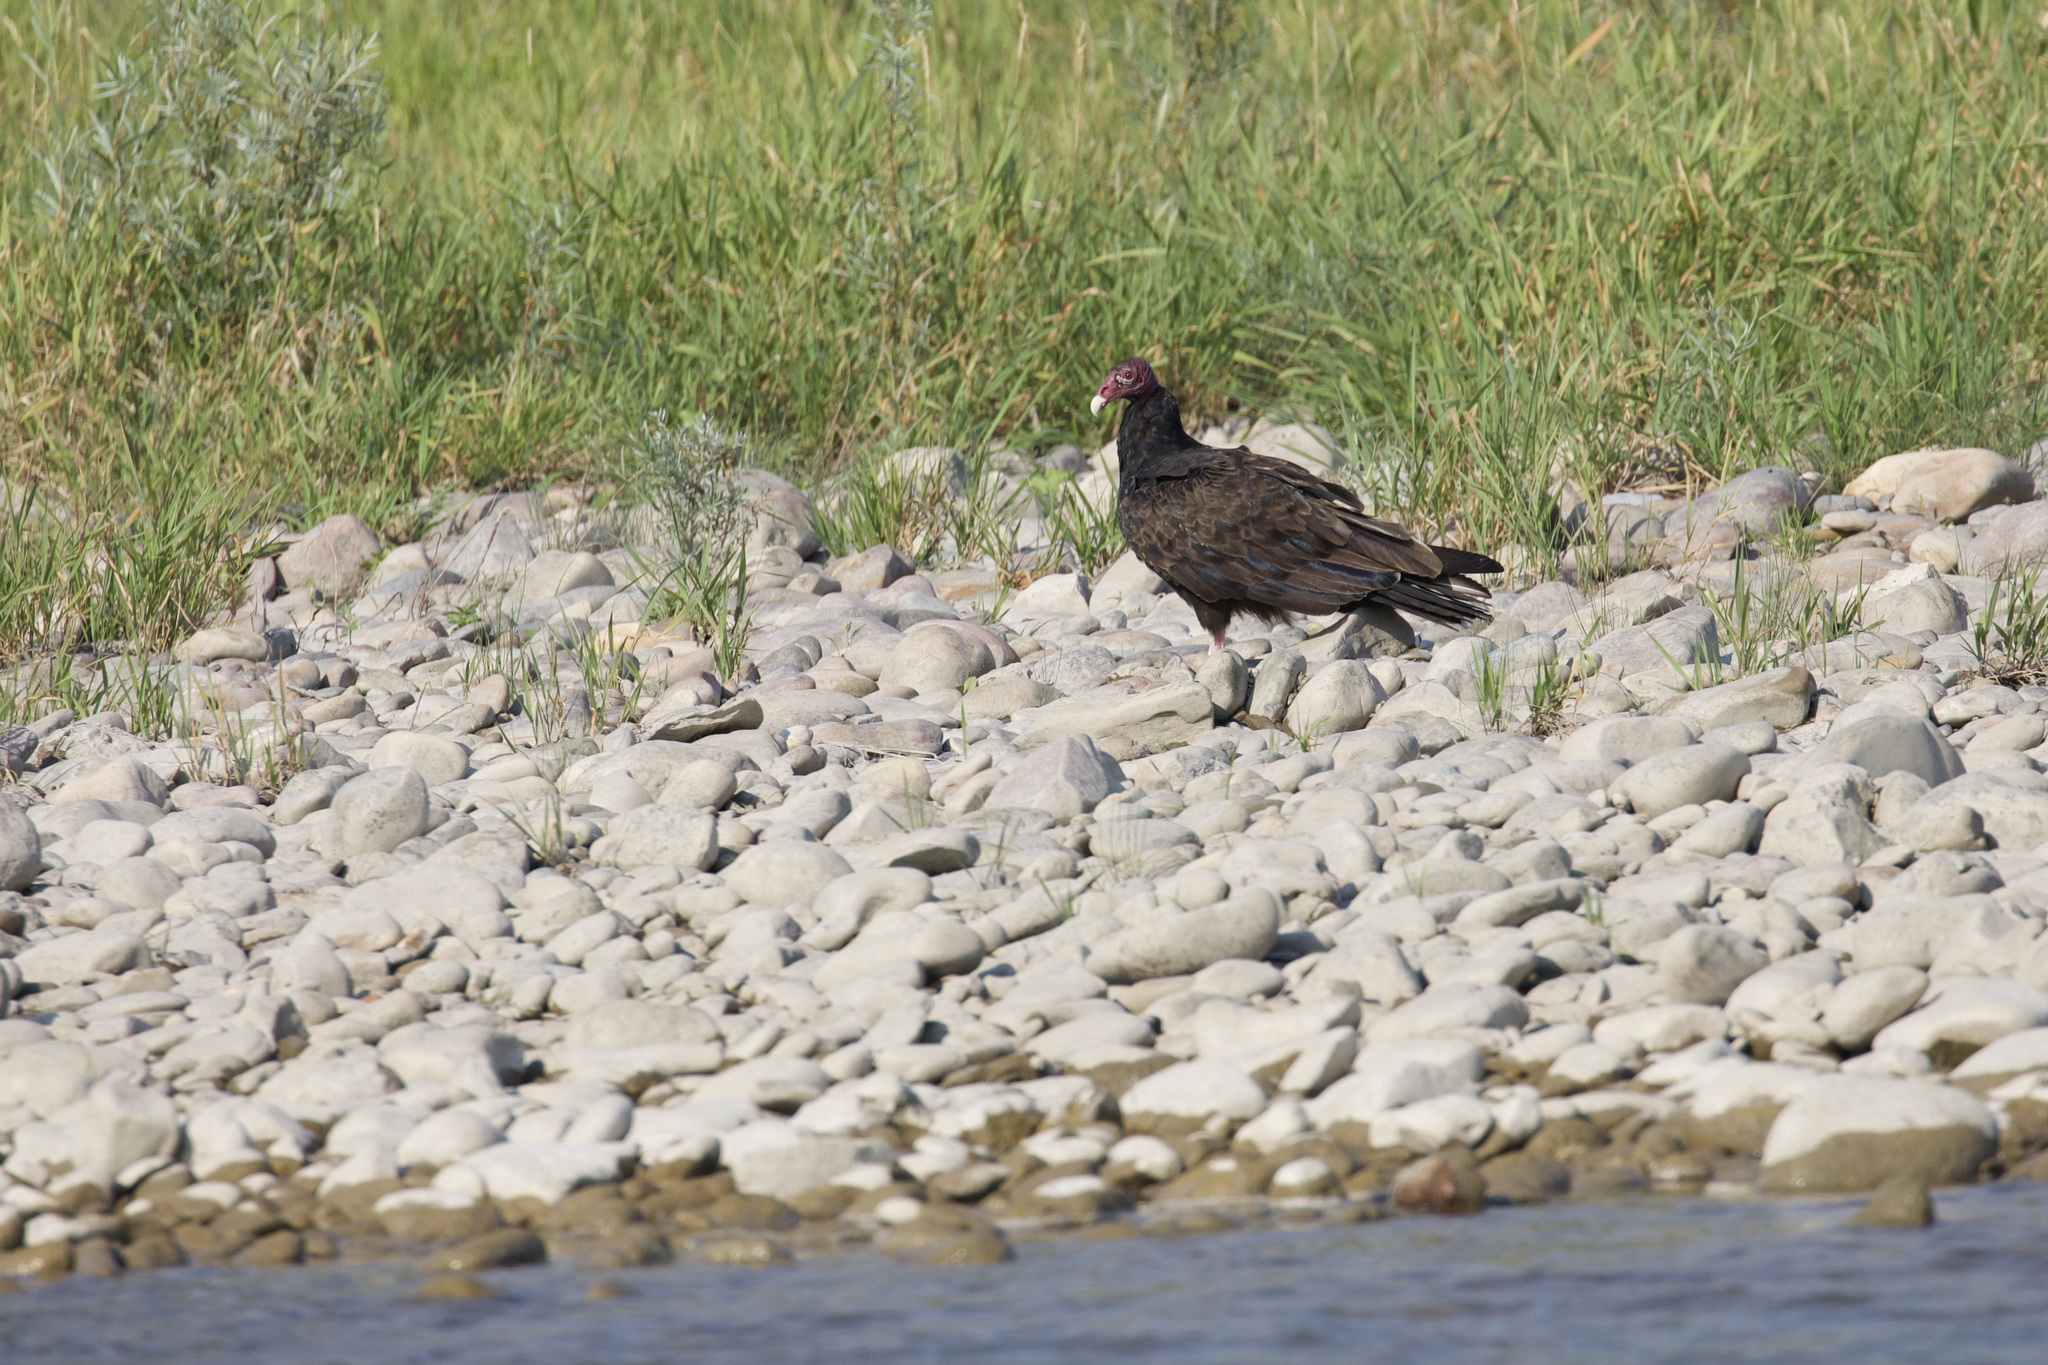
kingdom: Animalia
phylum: Chordata
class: Aves
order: Accipitriformes
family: Cathartidae
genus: Cathartes
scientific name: Cathartes aura
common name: Turkey vulture
